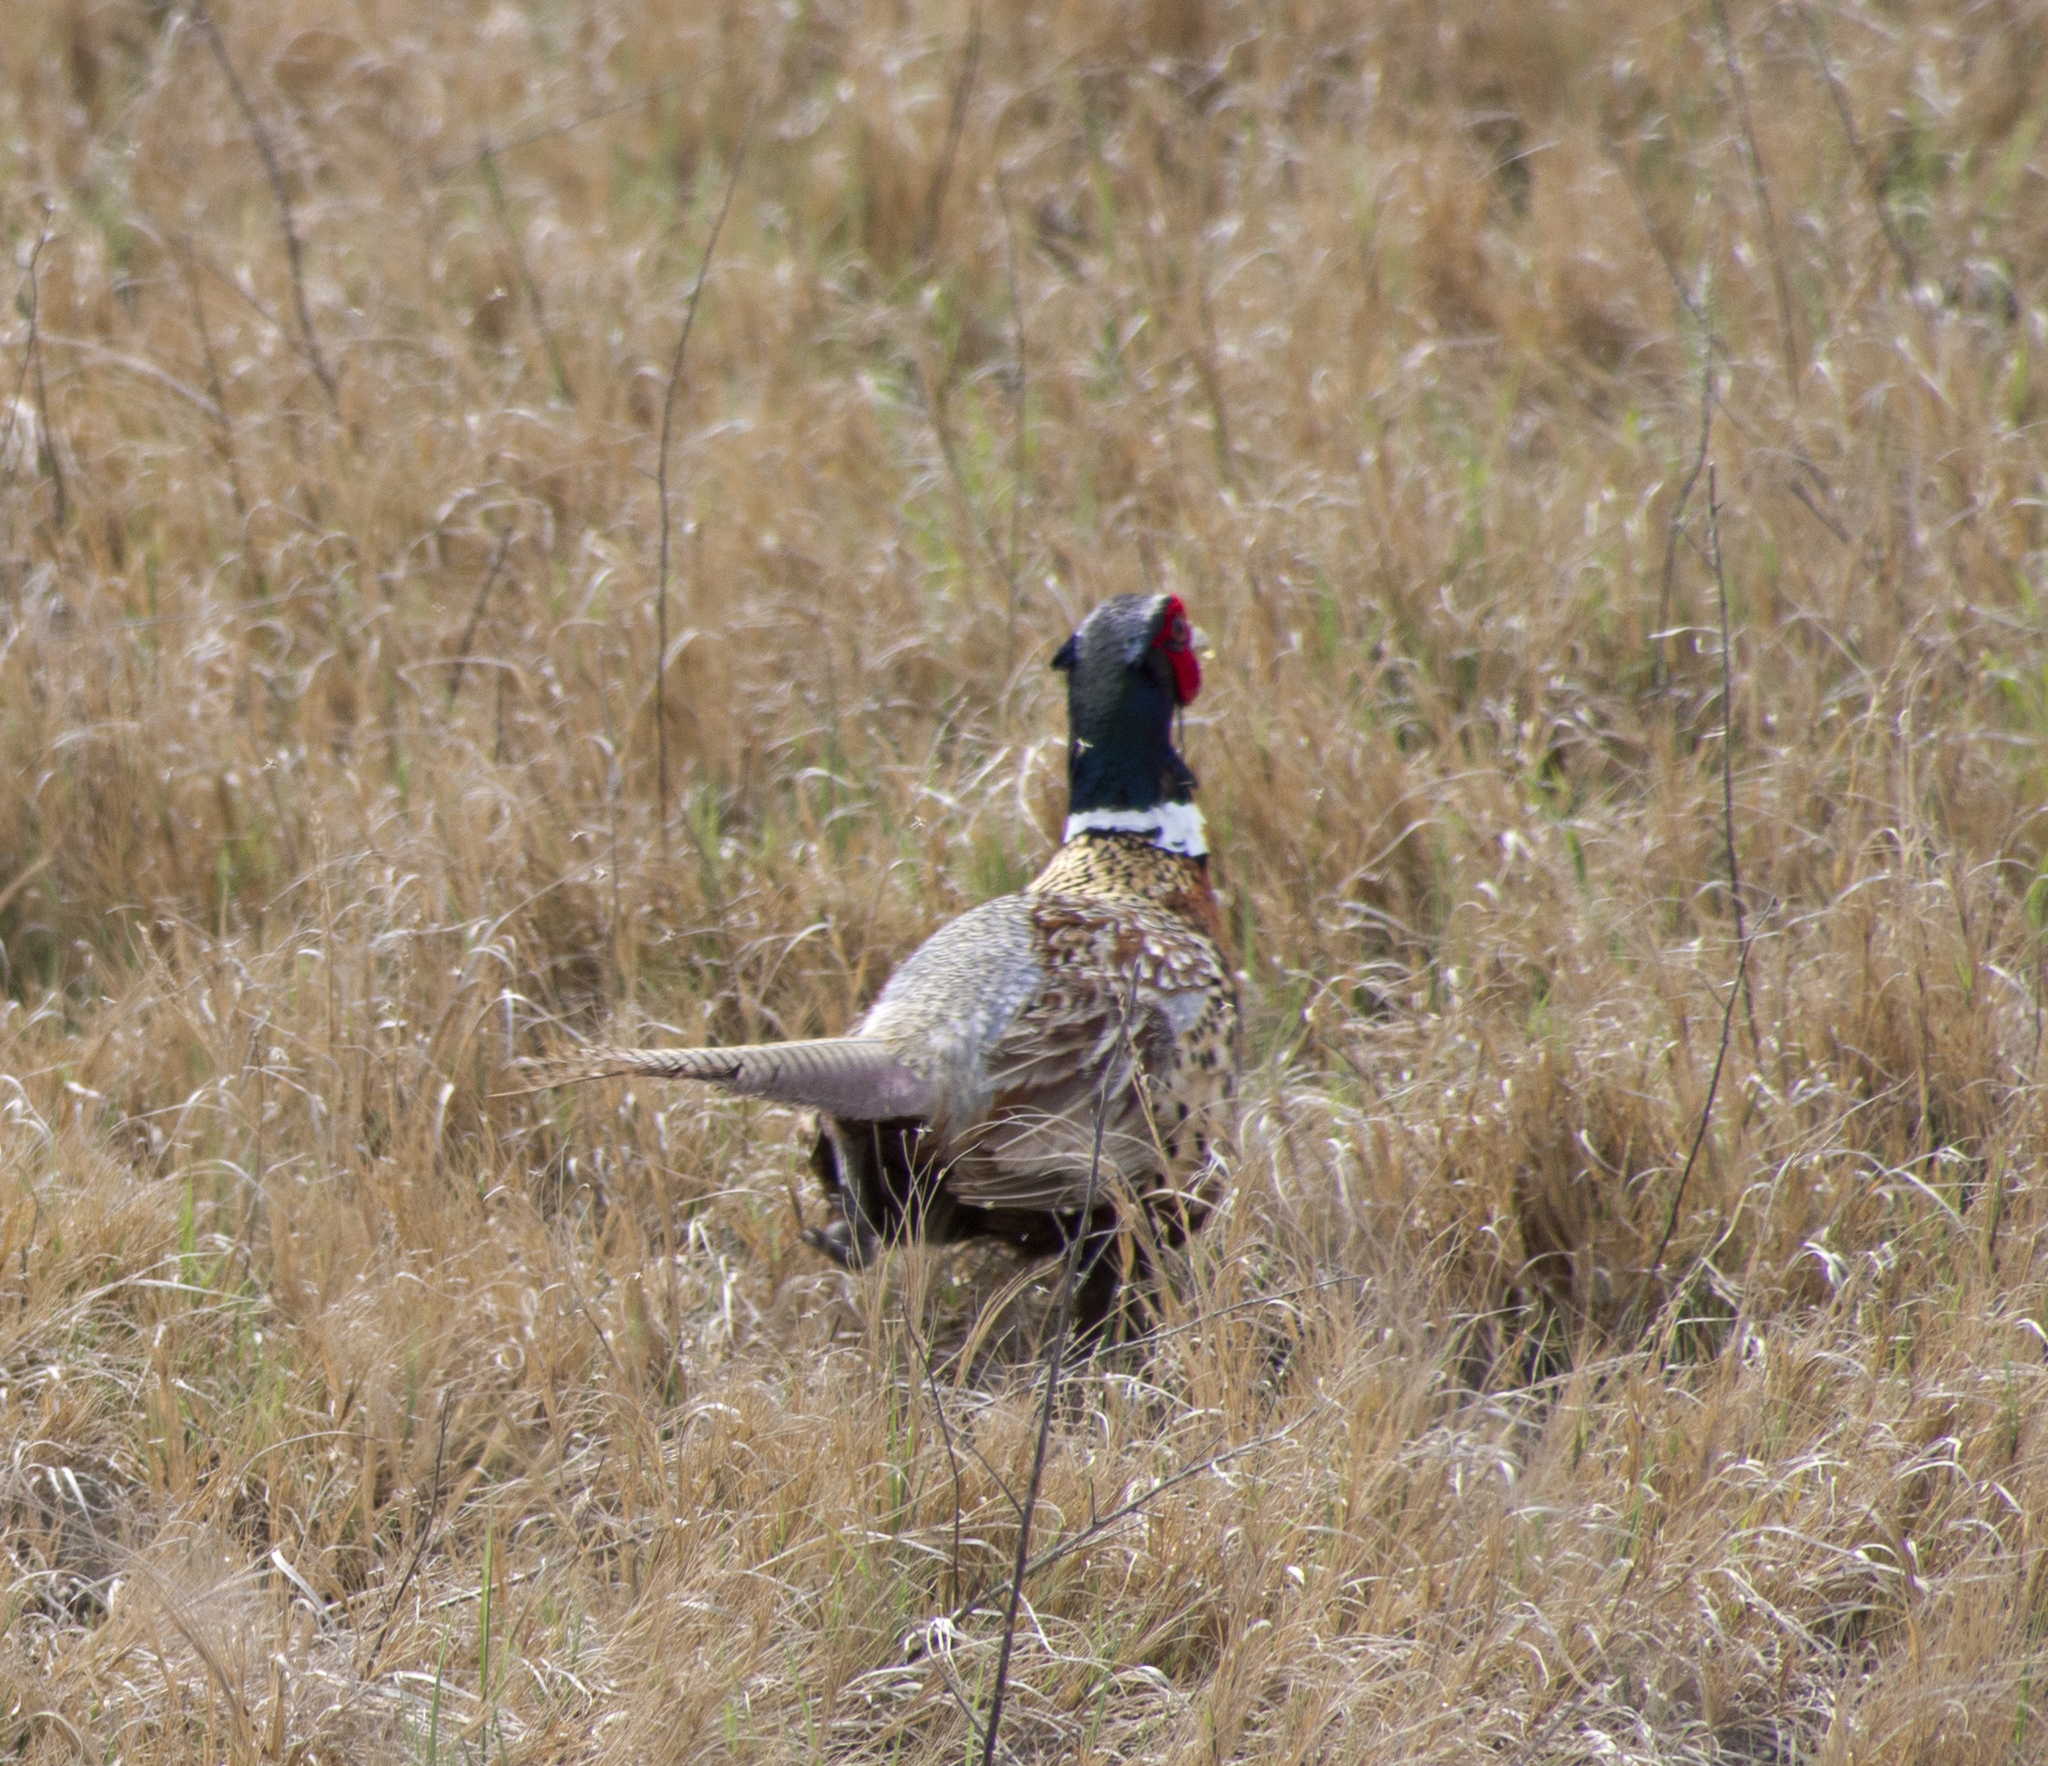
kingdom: Animalia
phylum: Chordata
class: Aves
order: Galliformes
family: Phasianidae
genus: Phasianus
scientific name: Phasianus colchicus
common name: Common pheasant
